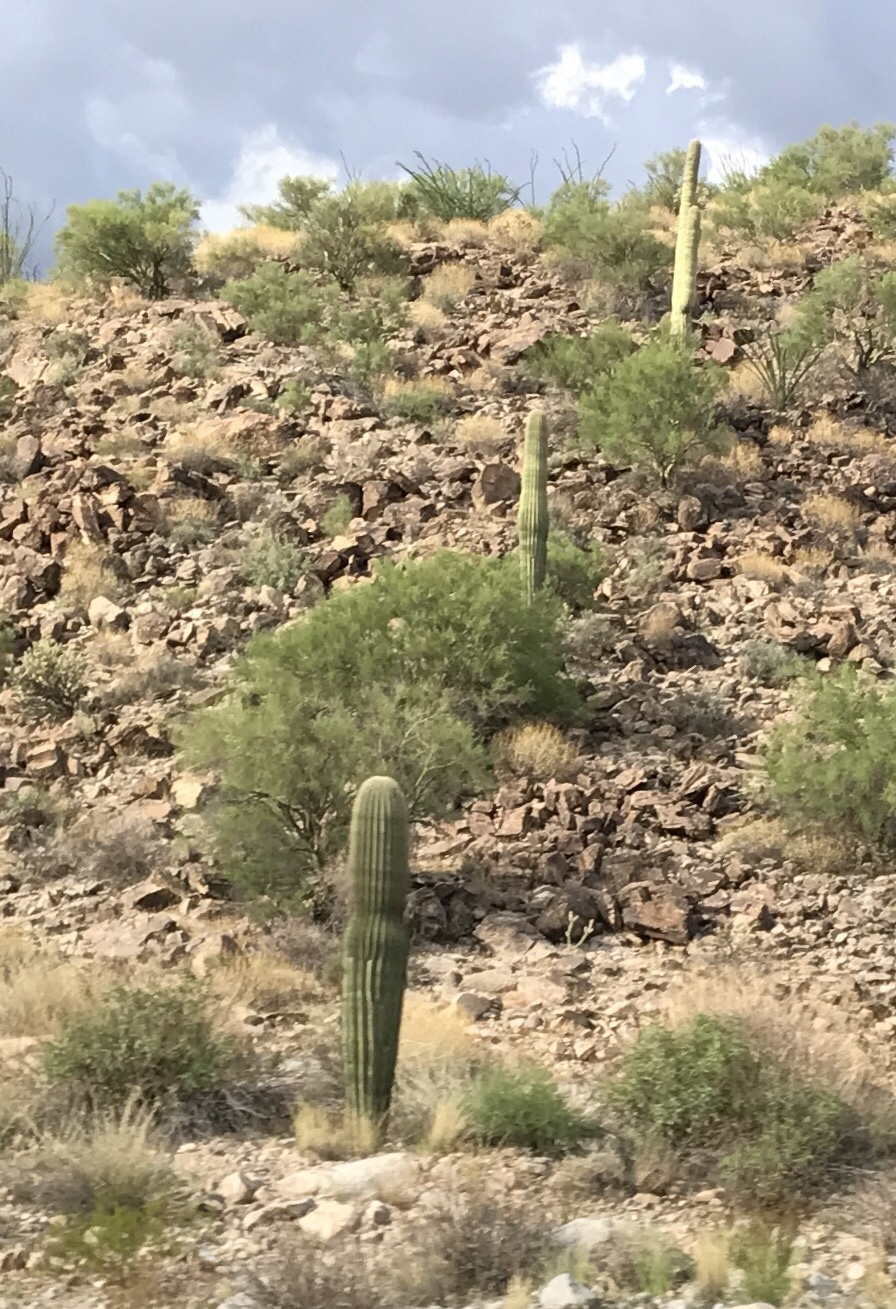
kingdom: Plantae
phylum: Tracheophyta
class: Magnoliopsida
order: Caryophyllales
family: Cactaceae
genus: Carnegiea
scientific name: Carnegiea gigantea
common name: Saguaro
